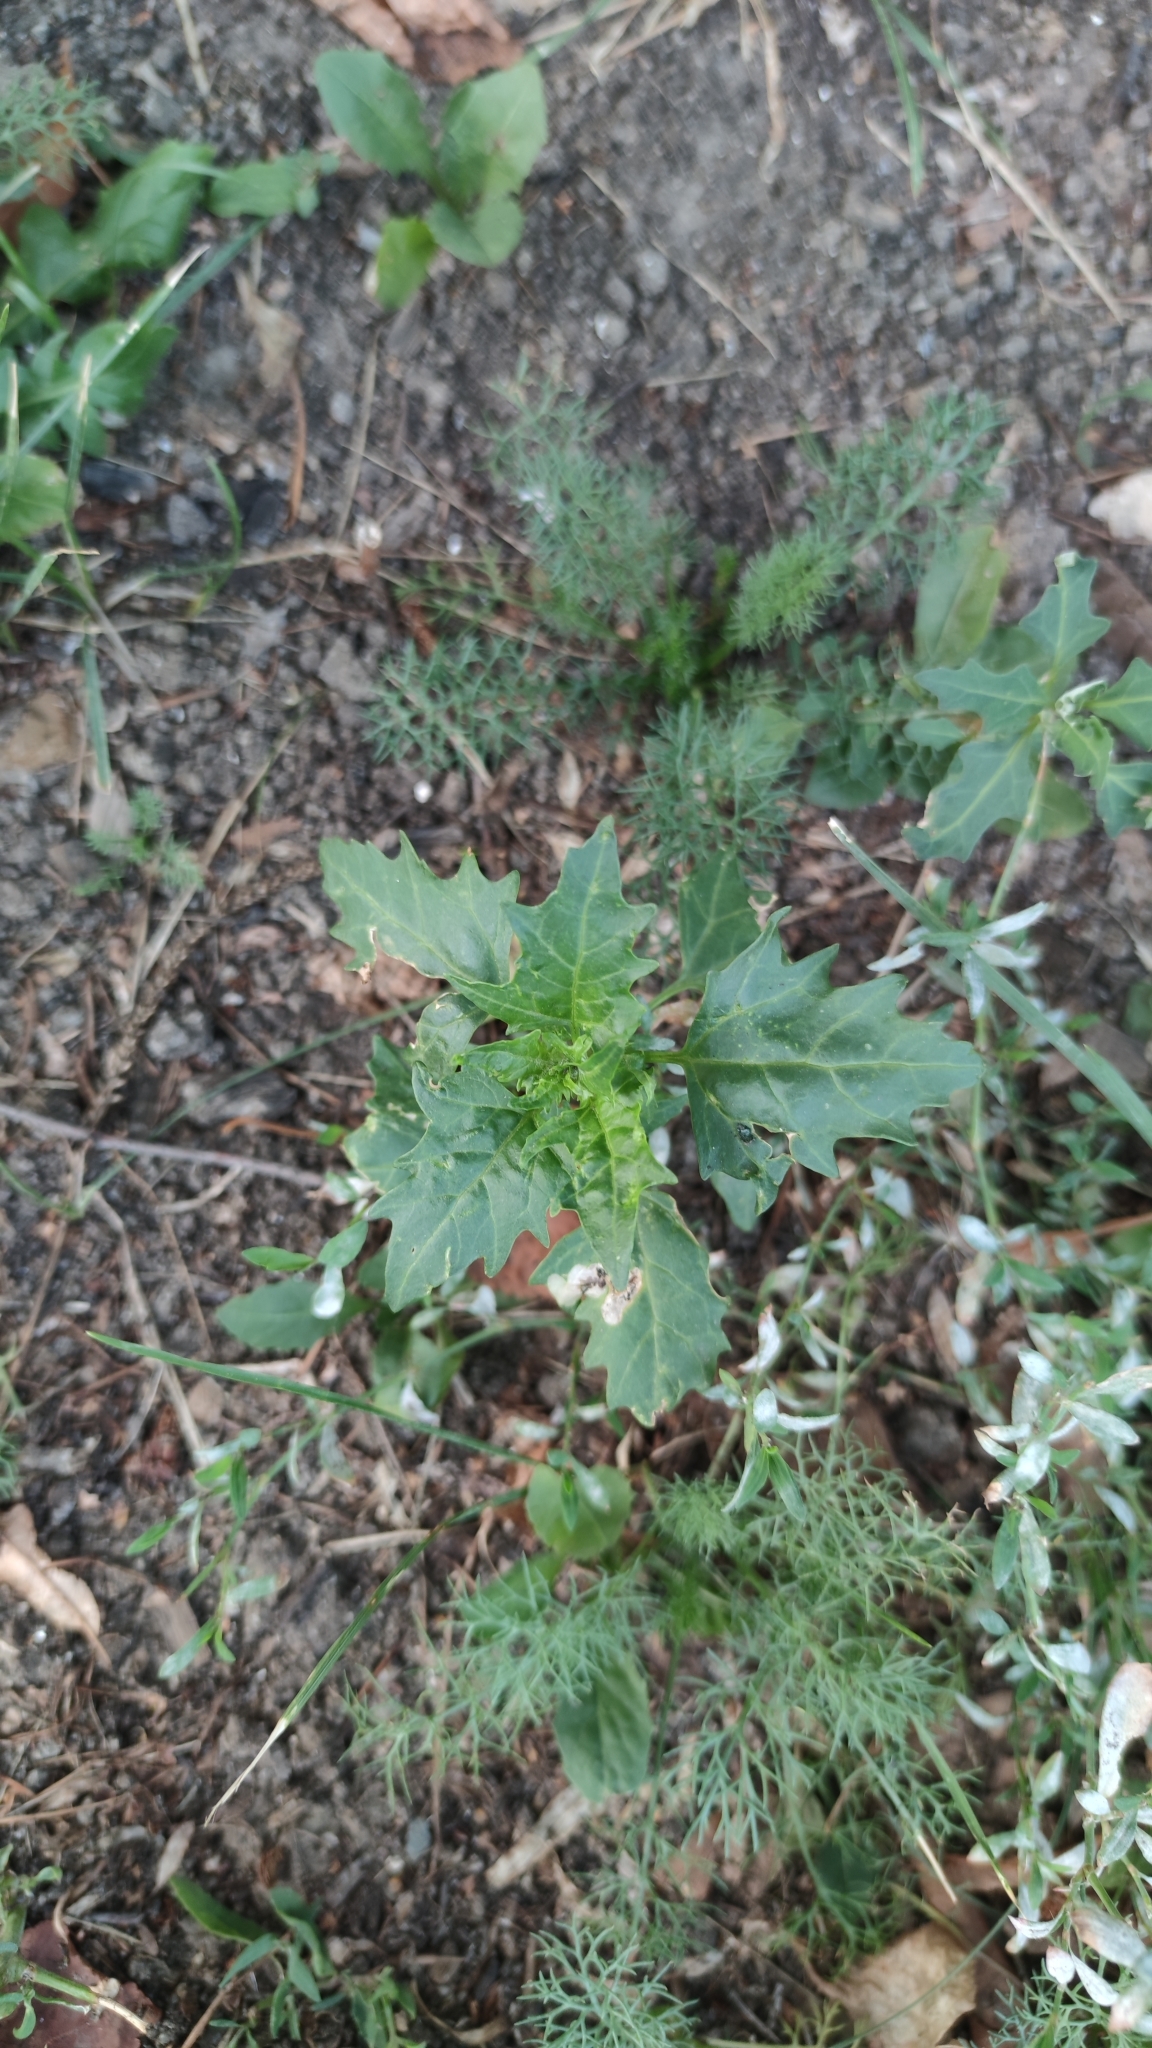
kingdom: Plantae
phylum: Tracheophyta
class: Magnoliopsida
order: Caryophyllales
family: Amaranthaceae
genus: Oxybasis
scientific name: Oxybasis rubra
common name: Red goosefoot
